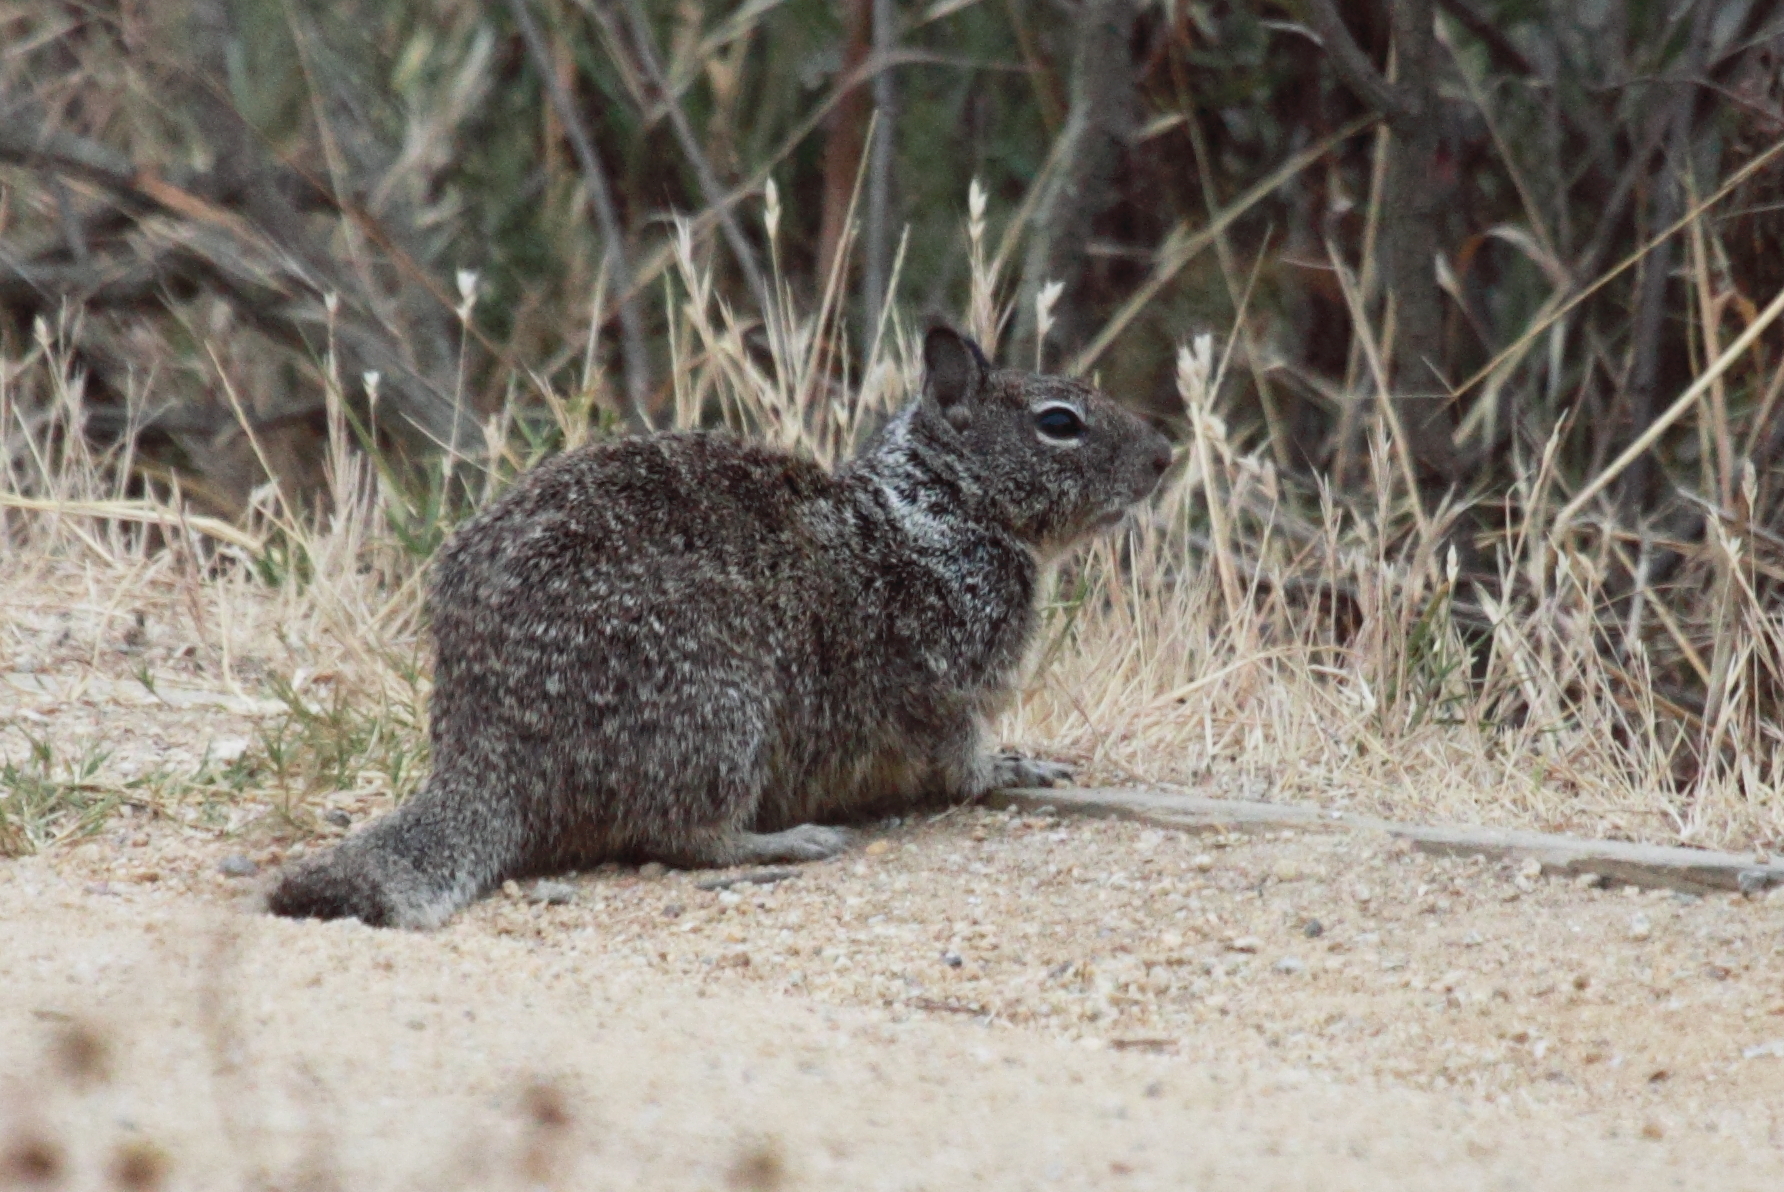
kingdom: Animalia
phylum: Chordata
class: Mammalia
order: Rodentia
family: Sciuridae
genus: Otospermophilus
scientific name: Otospermophilus beecheyi
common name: California ground squirrel
